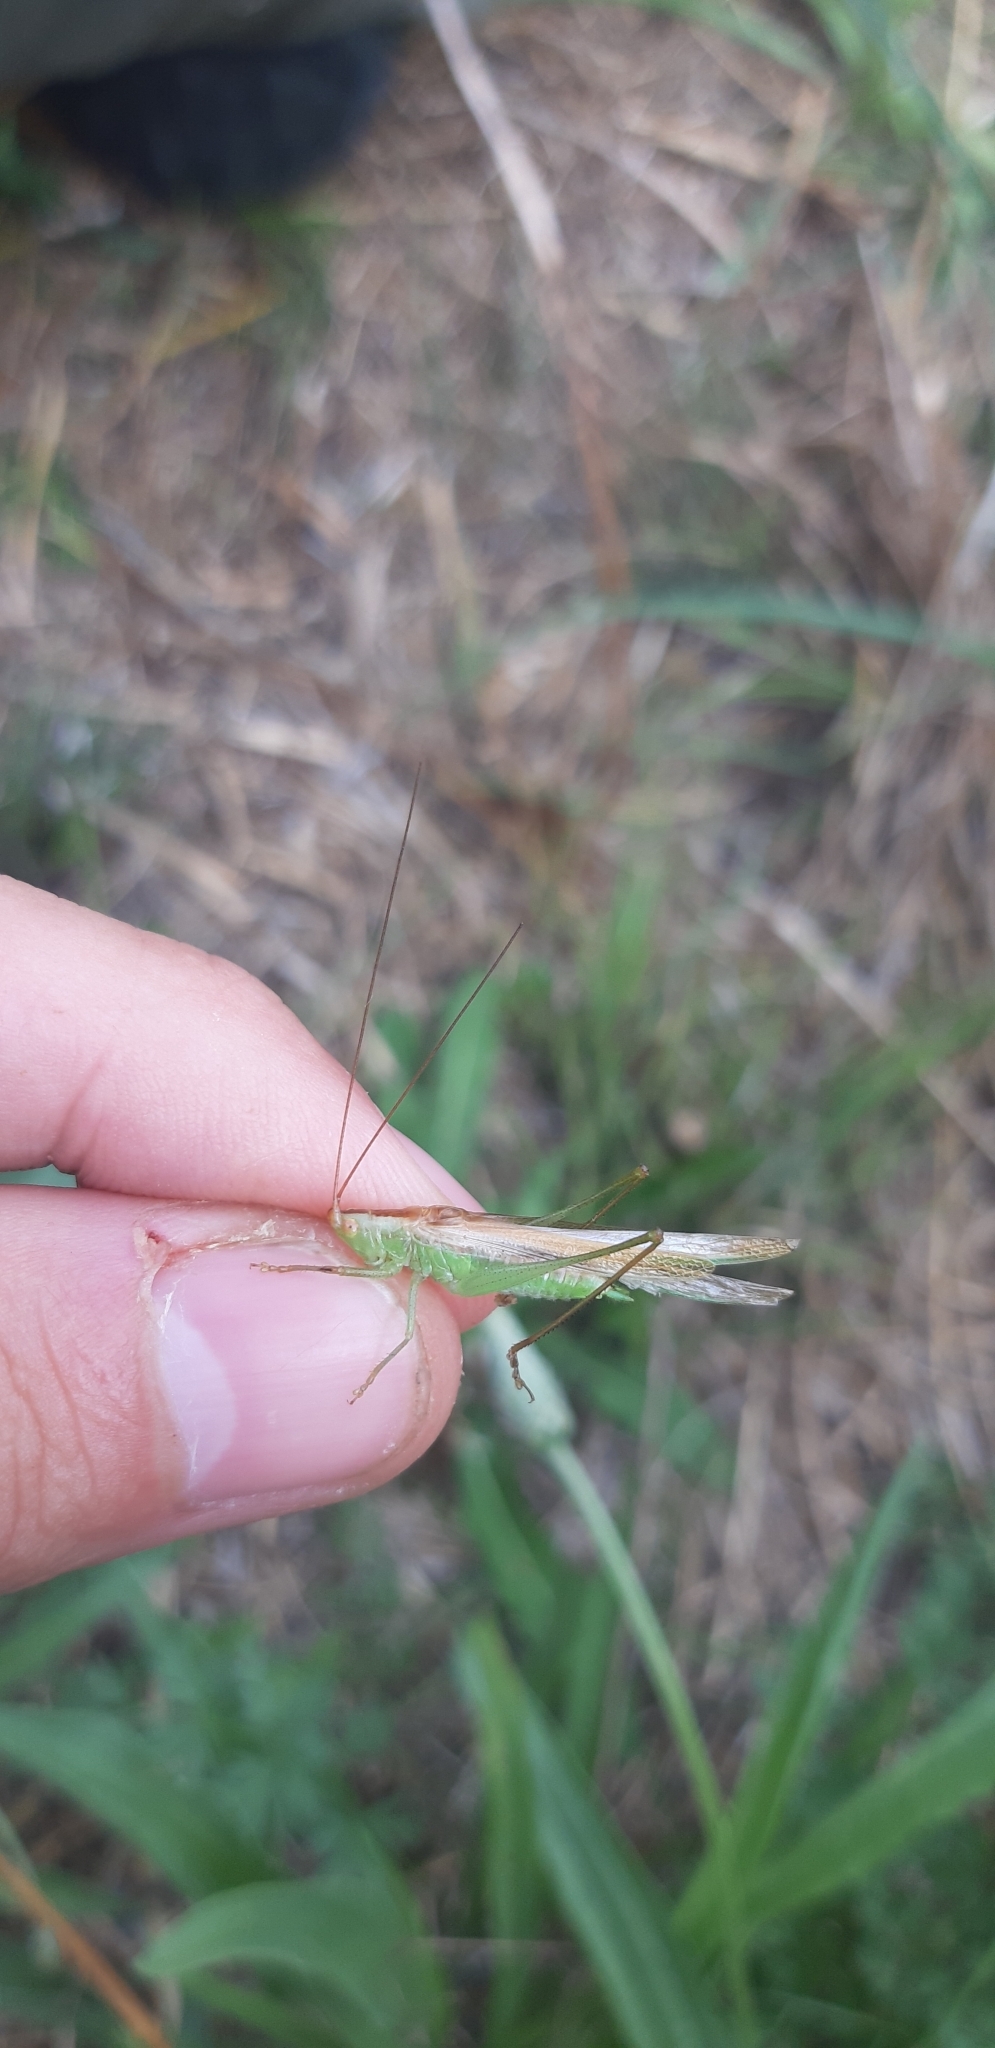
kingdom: Animalia
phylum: Arthropoda
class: Insecta
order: Orthoptera
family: Tettigoniidae
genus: Conocephalus
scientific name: Conocephalus conocephalus
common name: African meadow katydid
